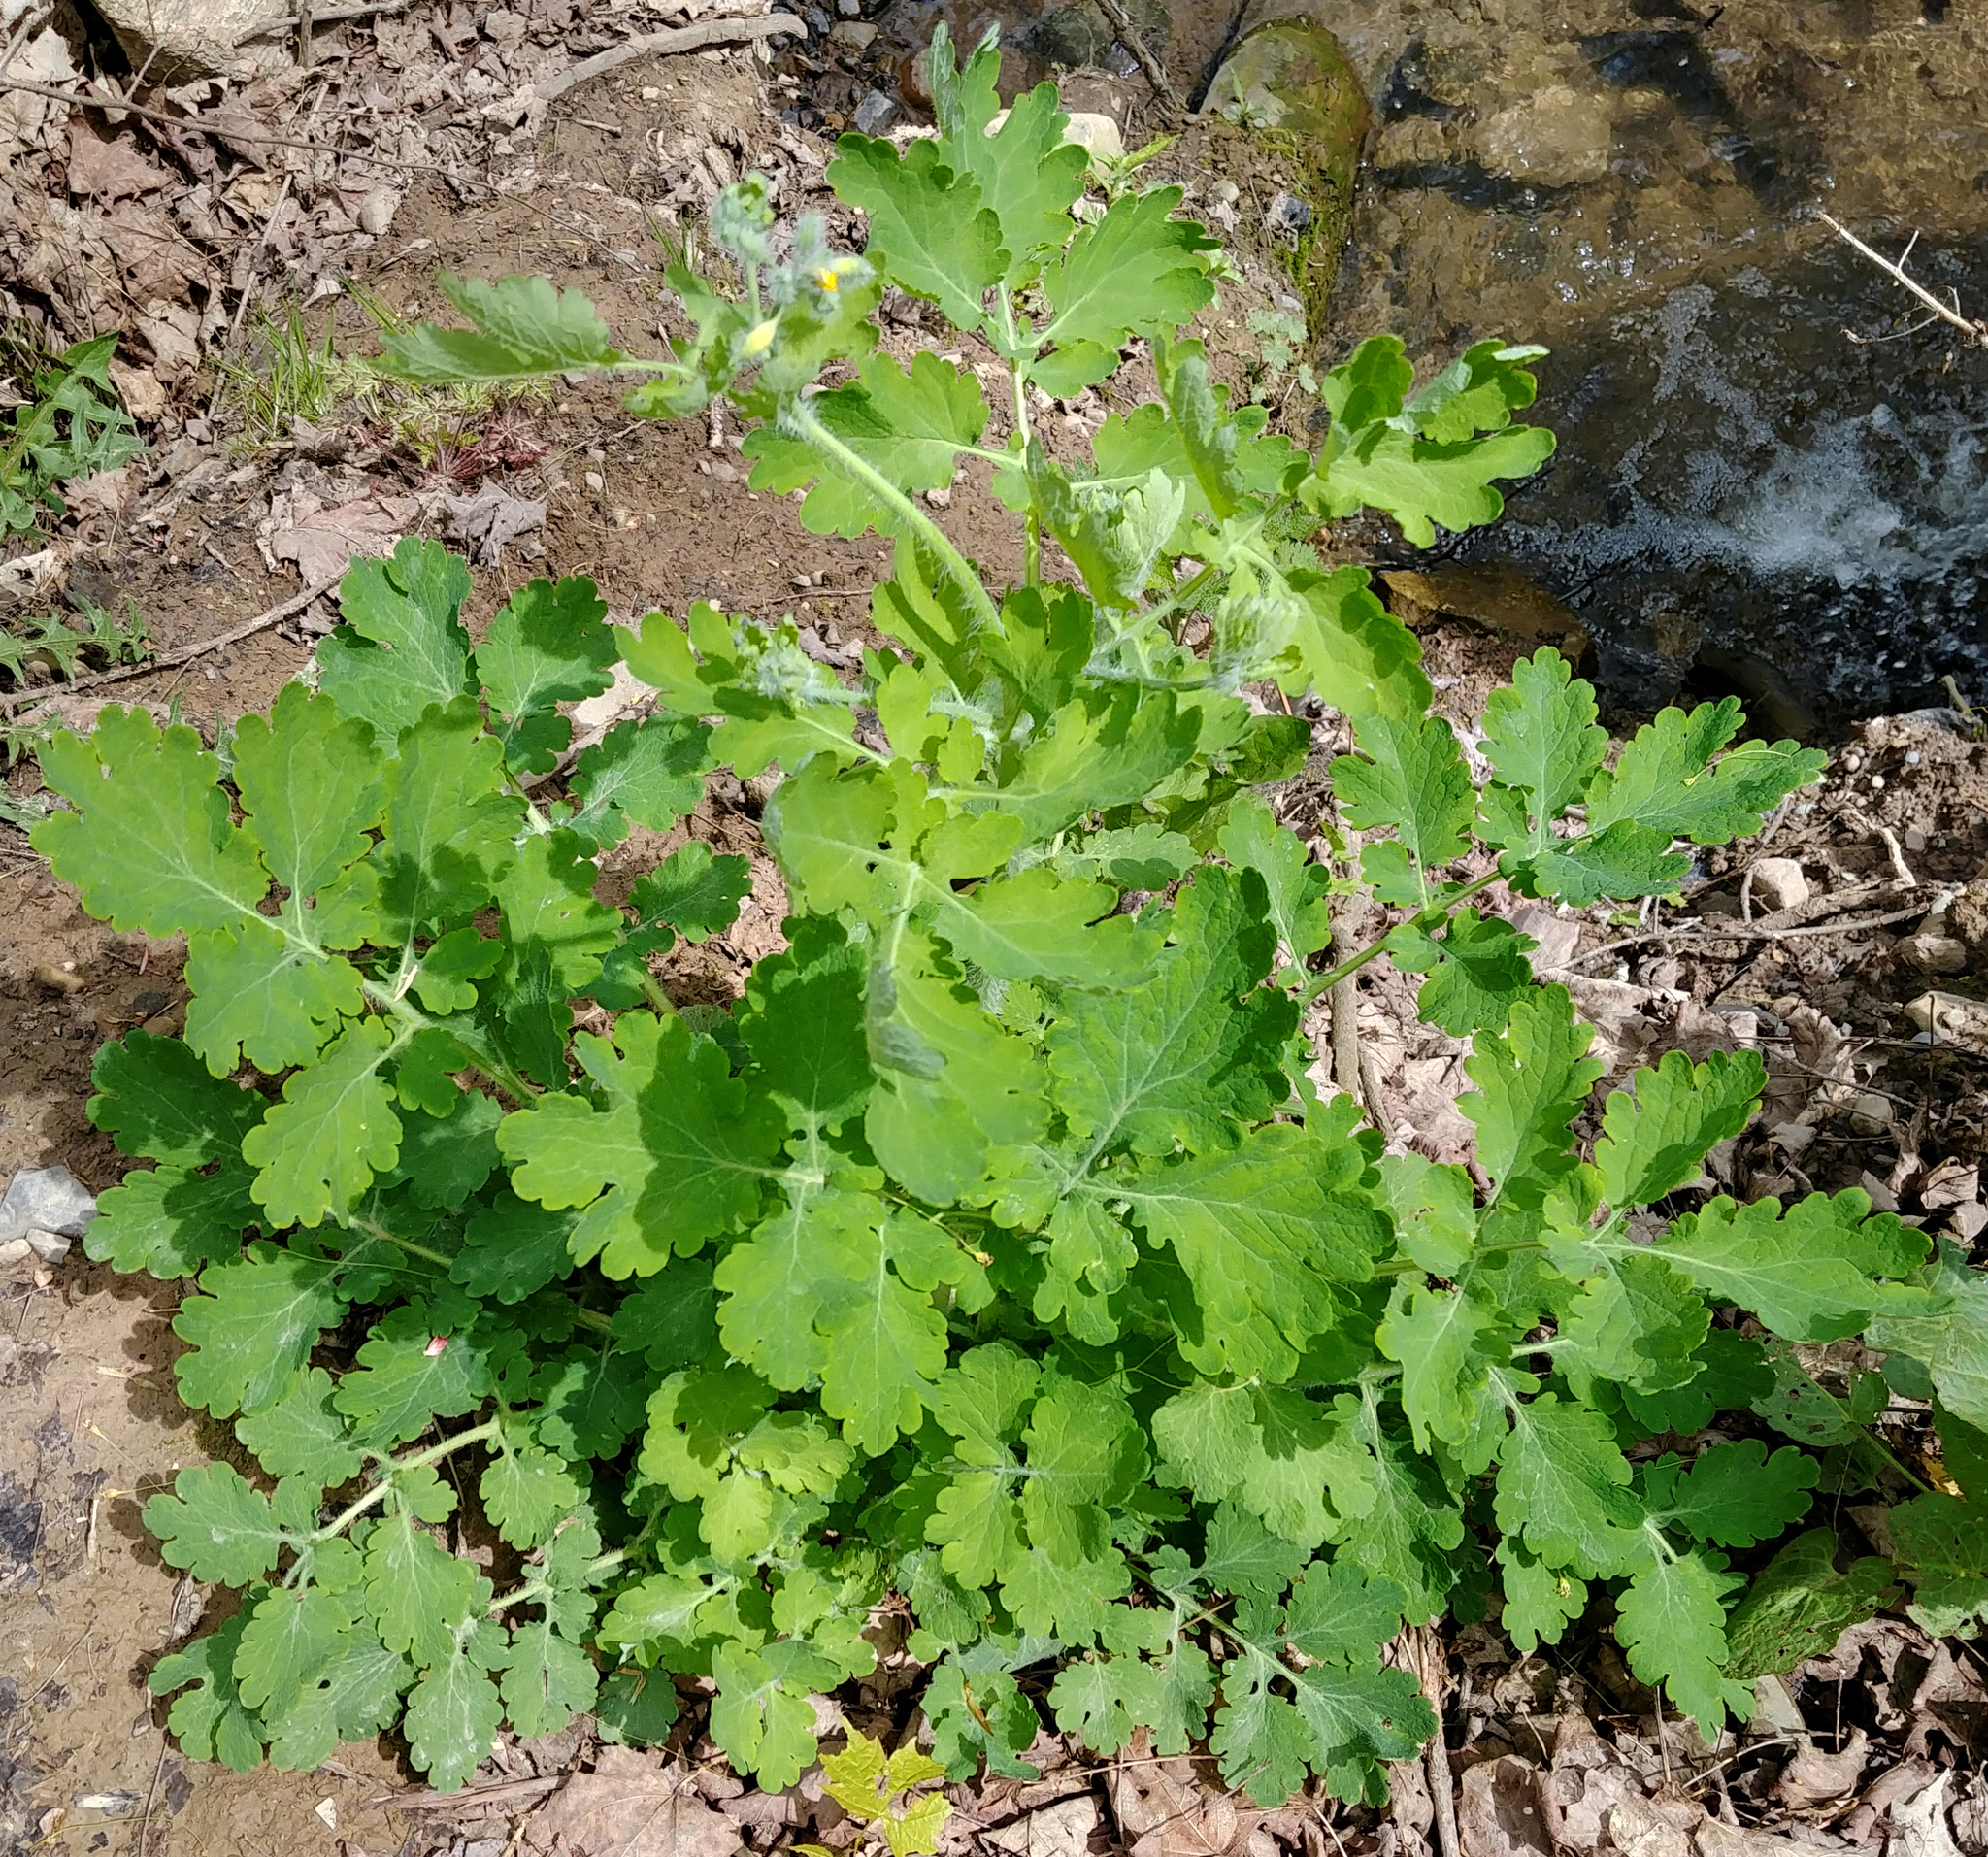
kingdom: Plantae
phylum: Tracheophyta
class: Magnoliopsida
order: Ranunculales
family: Papaveraceae
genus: Chelidonium
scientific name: Chelidonium majus
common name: Greater celandine
